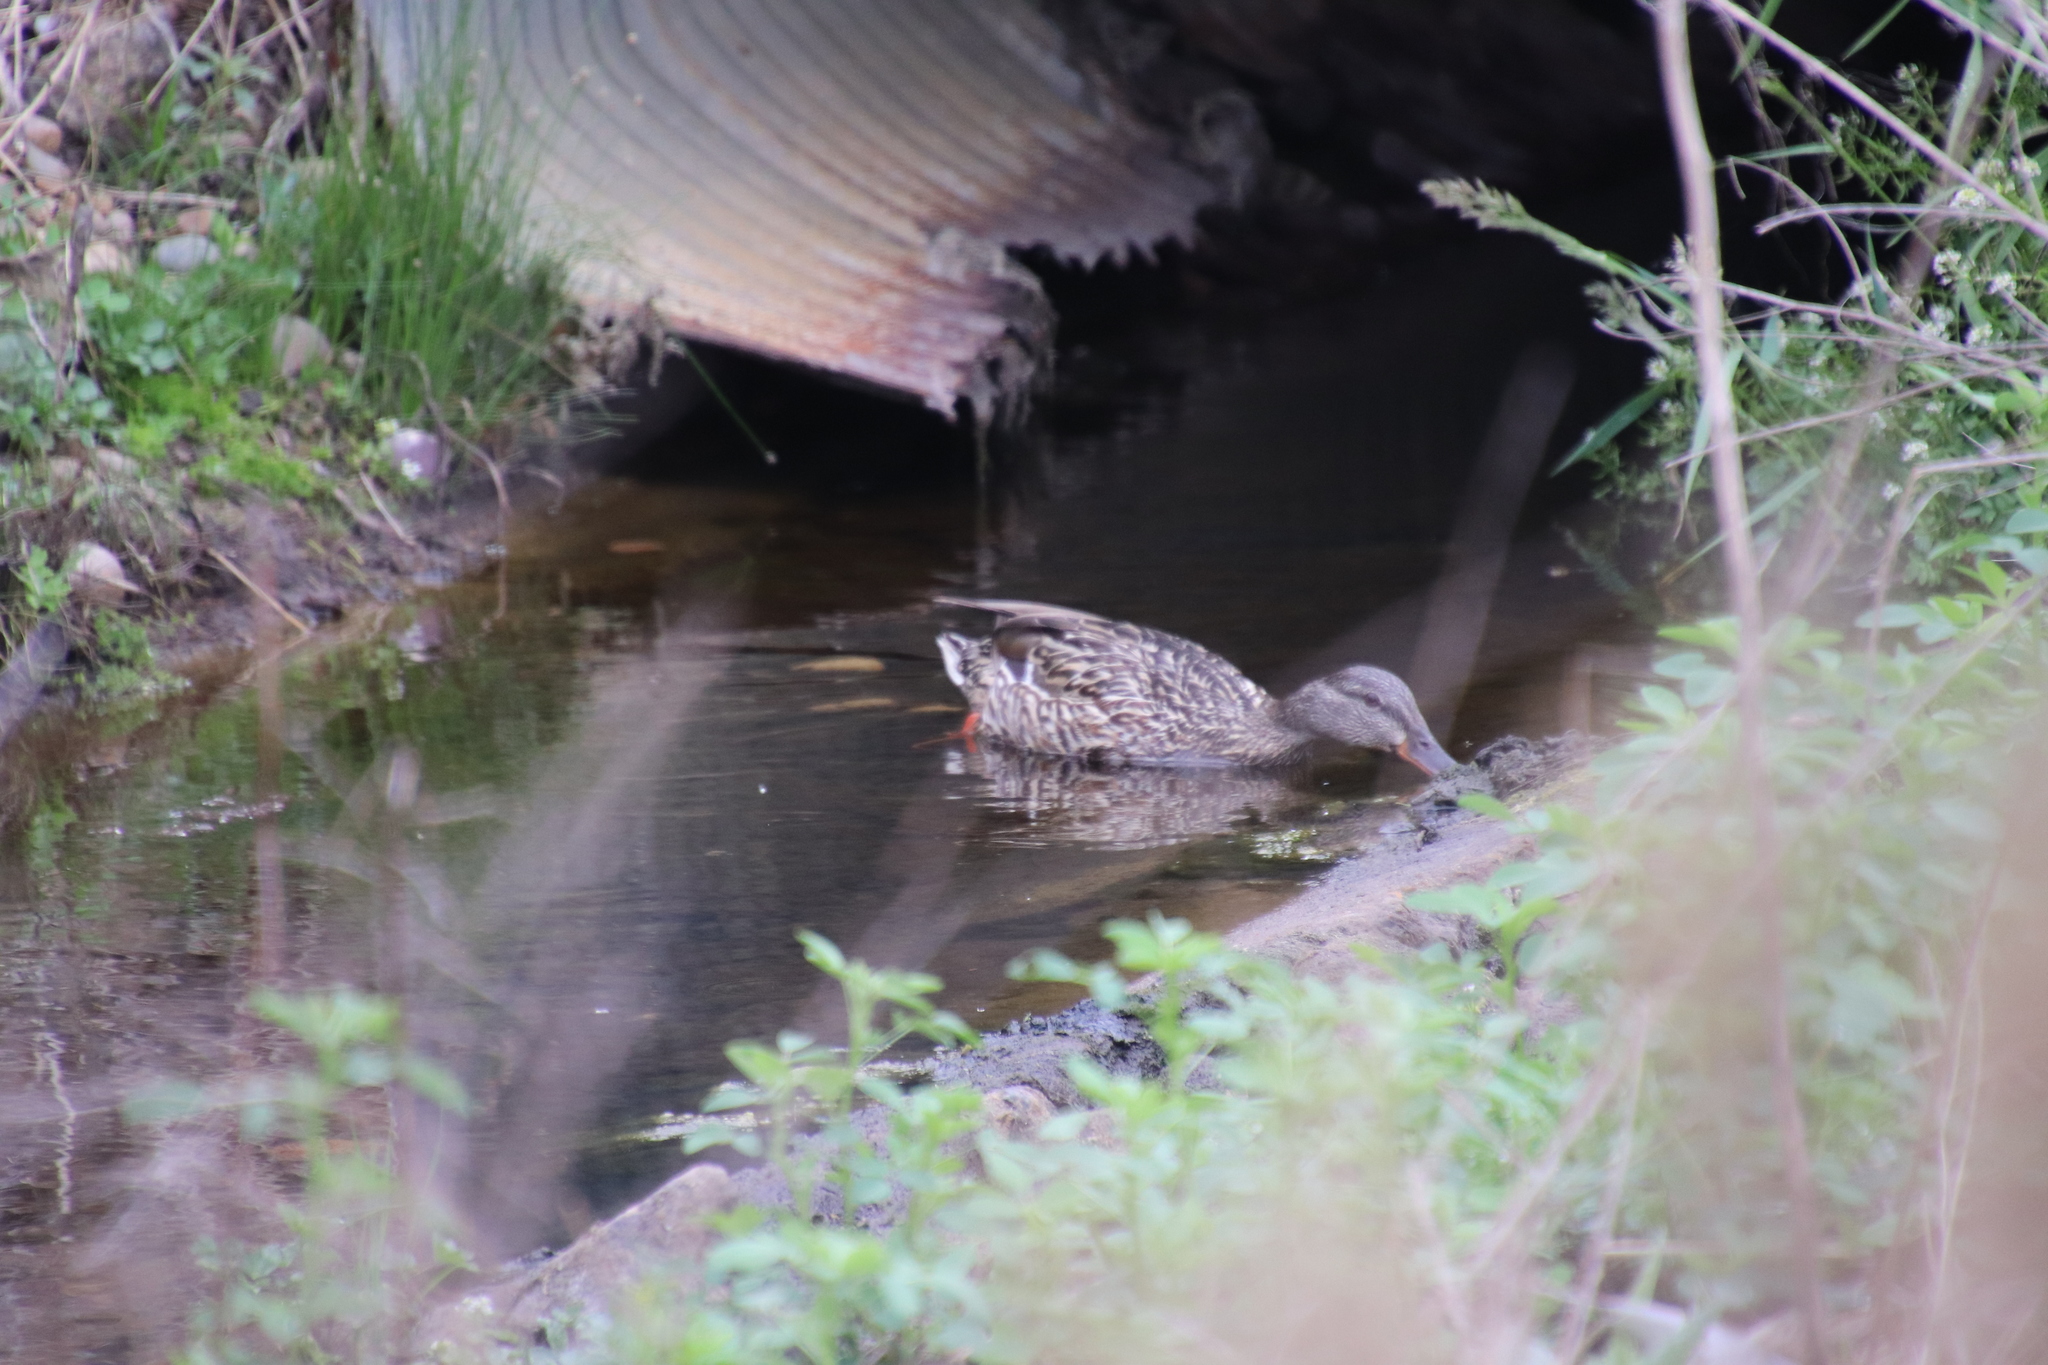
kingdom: Animalia
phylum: Chordata
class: Aves
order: Anseriformes
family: Anatidae
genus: Anas
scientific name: Anas platyrhynchos
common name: Mallard
